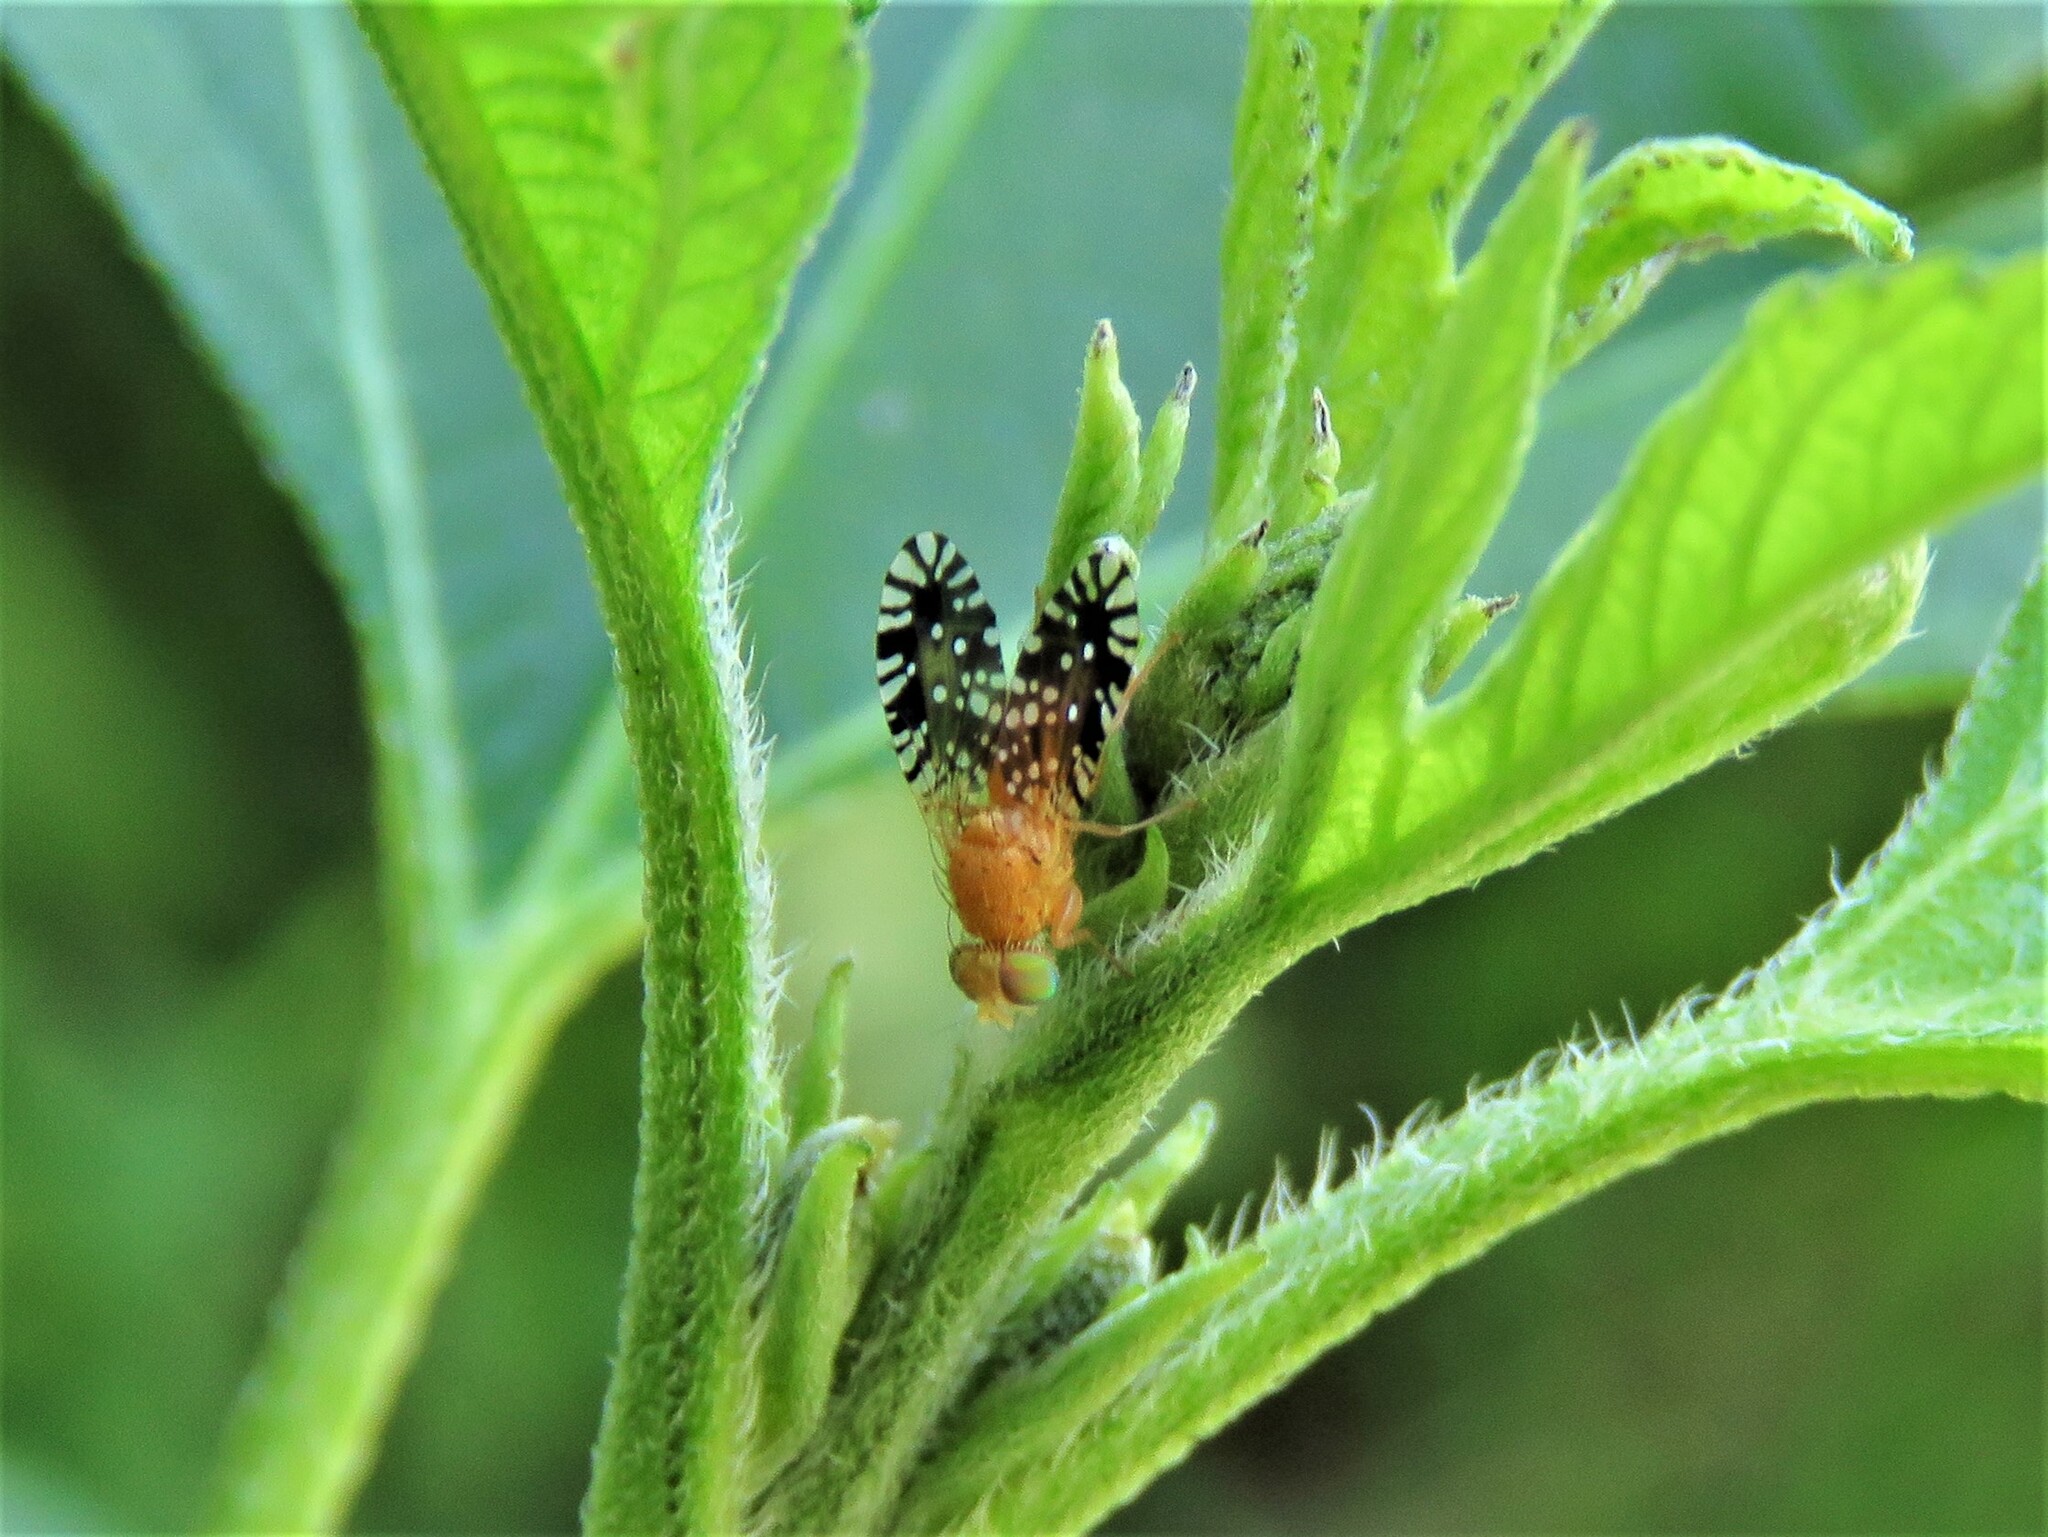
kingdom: Animalia
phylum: Arthropoda
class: Insecta
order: Diptera
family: Tephritidae
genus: Euaresta
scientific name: Euaresta festiva
